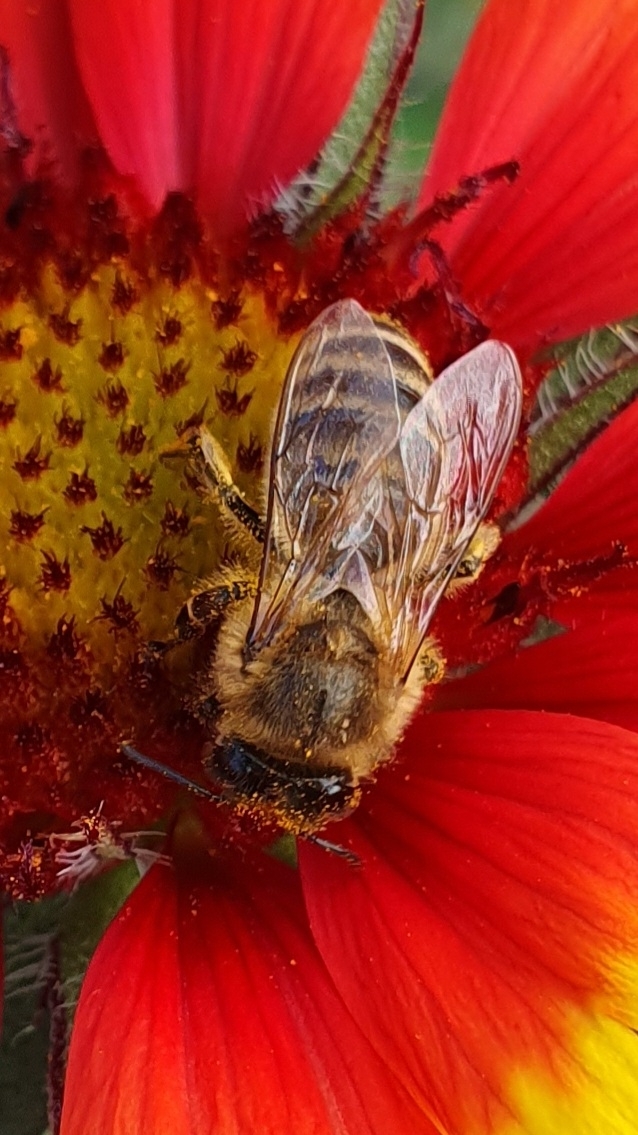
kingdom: Animalia
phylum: Arthropoda
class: Insecta
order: Hymenoptera
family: Apidae
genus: Apis
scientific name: Apis mellifera
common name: Honey bee
